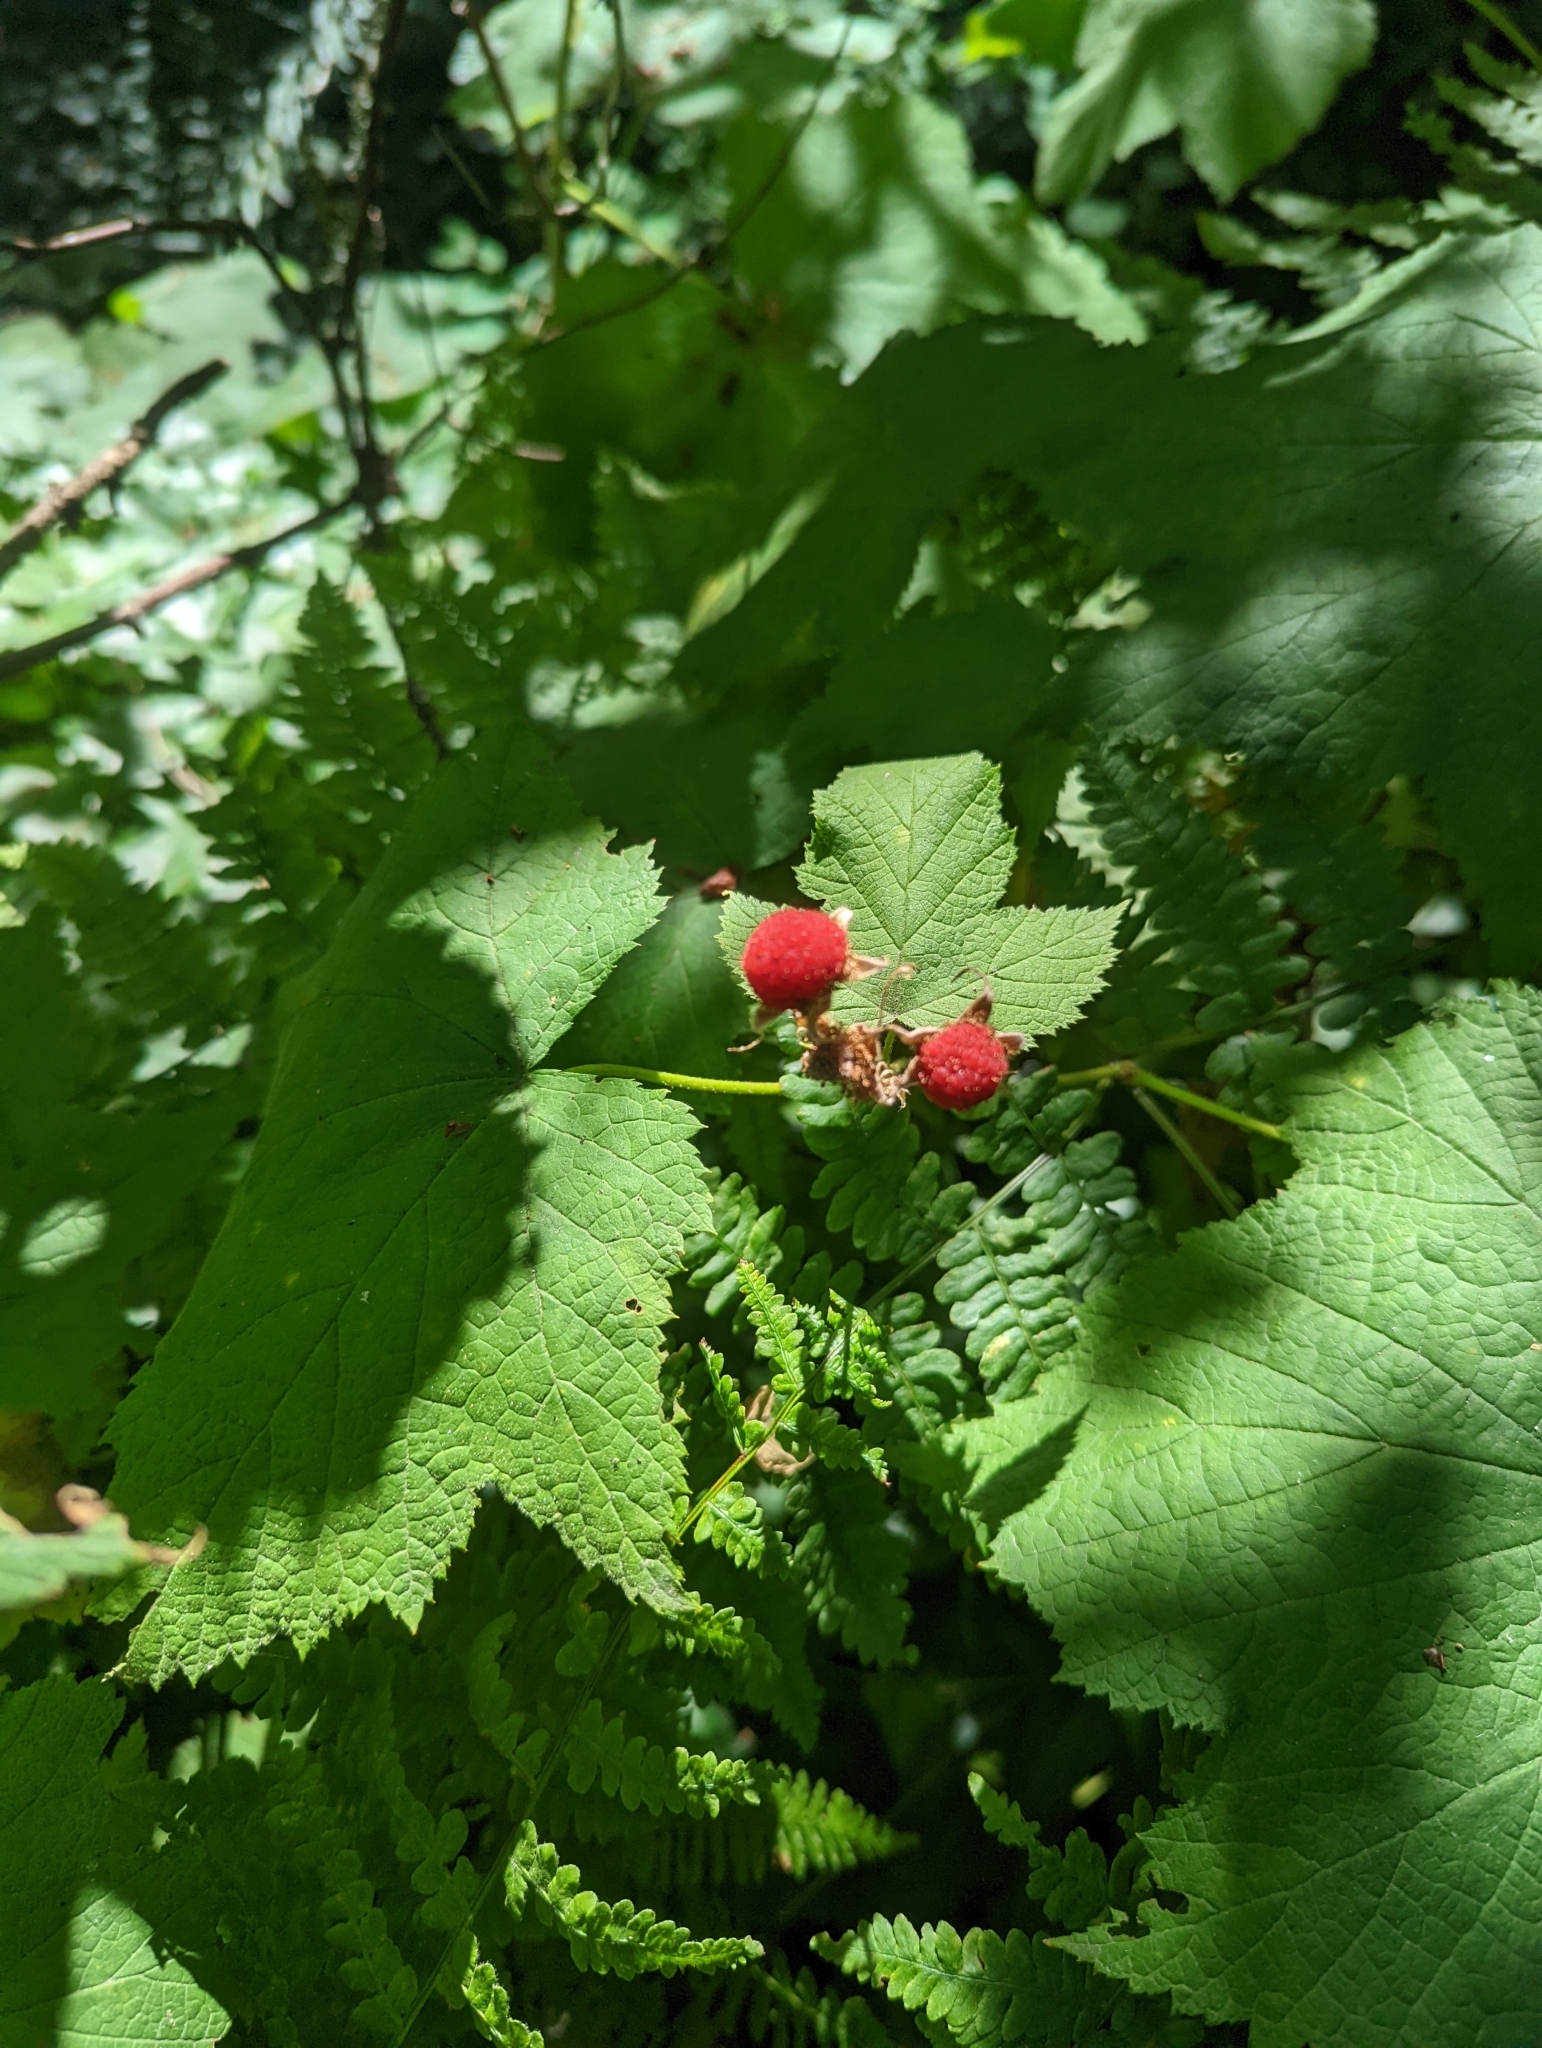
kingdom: Plantae
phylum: Tracheophyta
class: Magnoliopsida
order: Rosales
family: Rosaceae
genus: Rubus
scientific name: Rubus parviflorus
